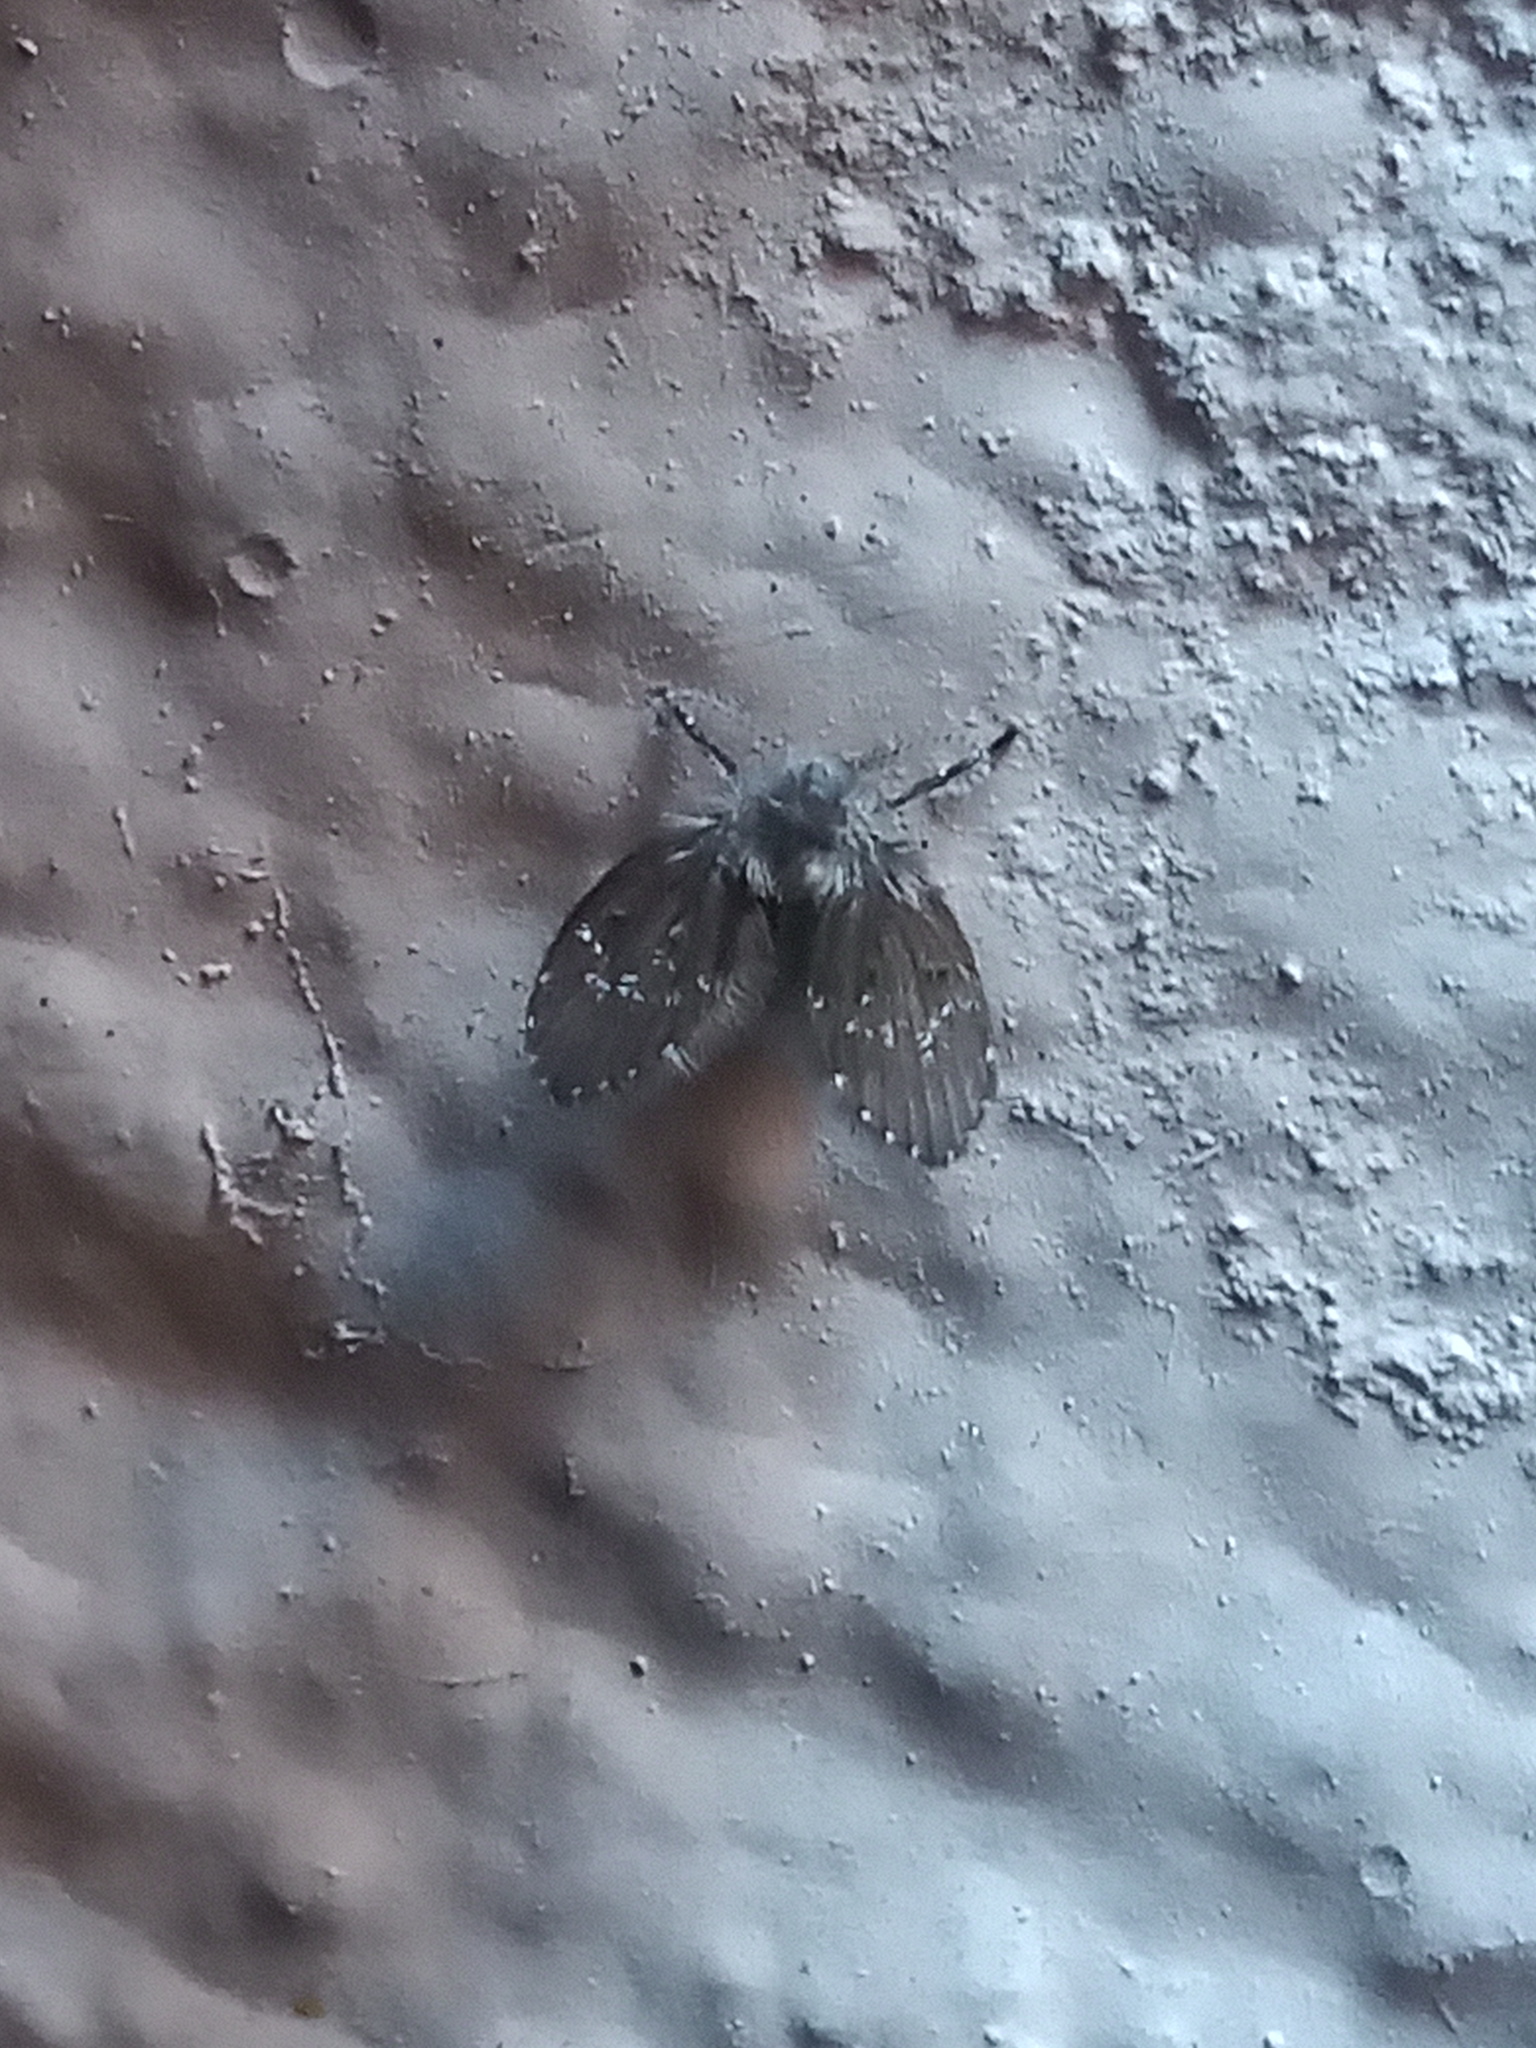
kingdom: Animalia
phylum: Arthropoda
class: Insecta
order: Diptera
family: Psychodidae
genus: Clogmia
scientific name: Clogmia albipunctatus
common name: White-spotted moth fly
